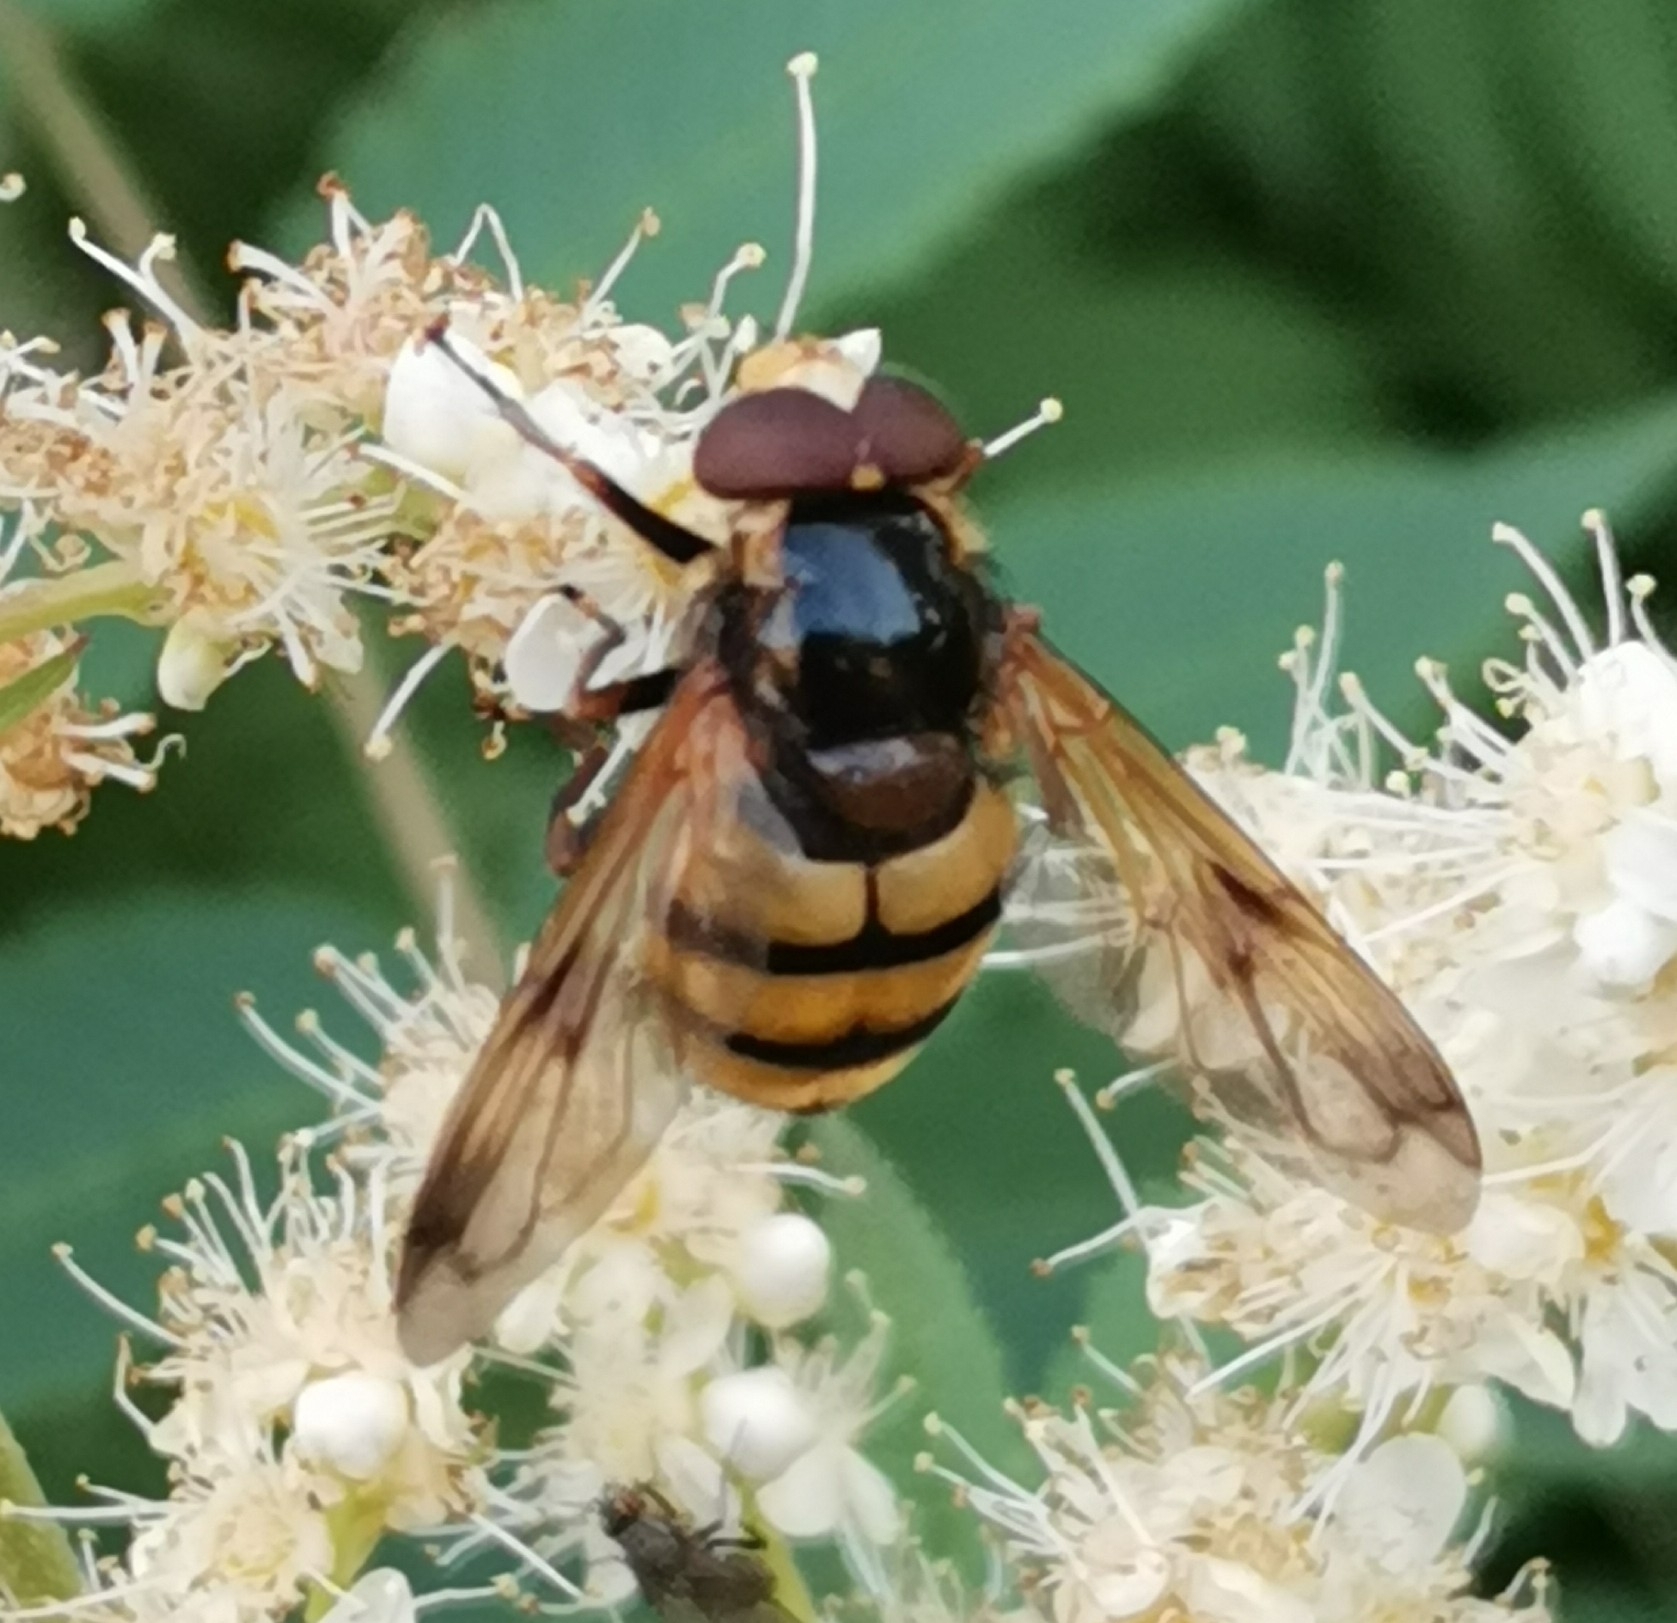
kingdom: Animalia
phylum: Arthropoda
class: Insecta
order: Diptera
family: Syrphidae
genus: Volucella
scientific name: Volucella inanis
